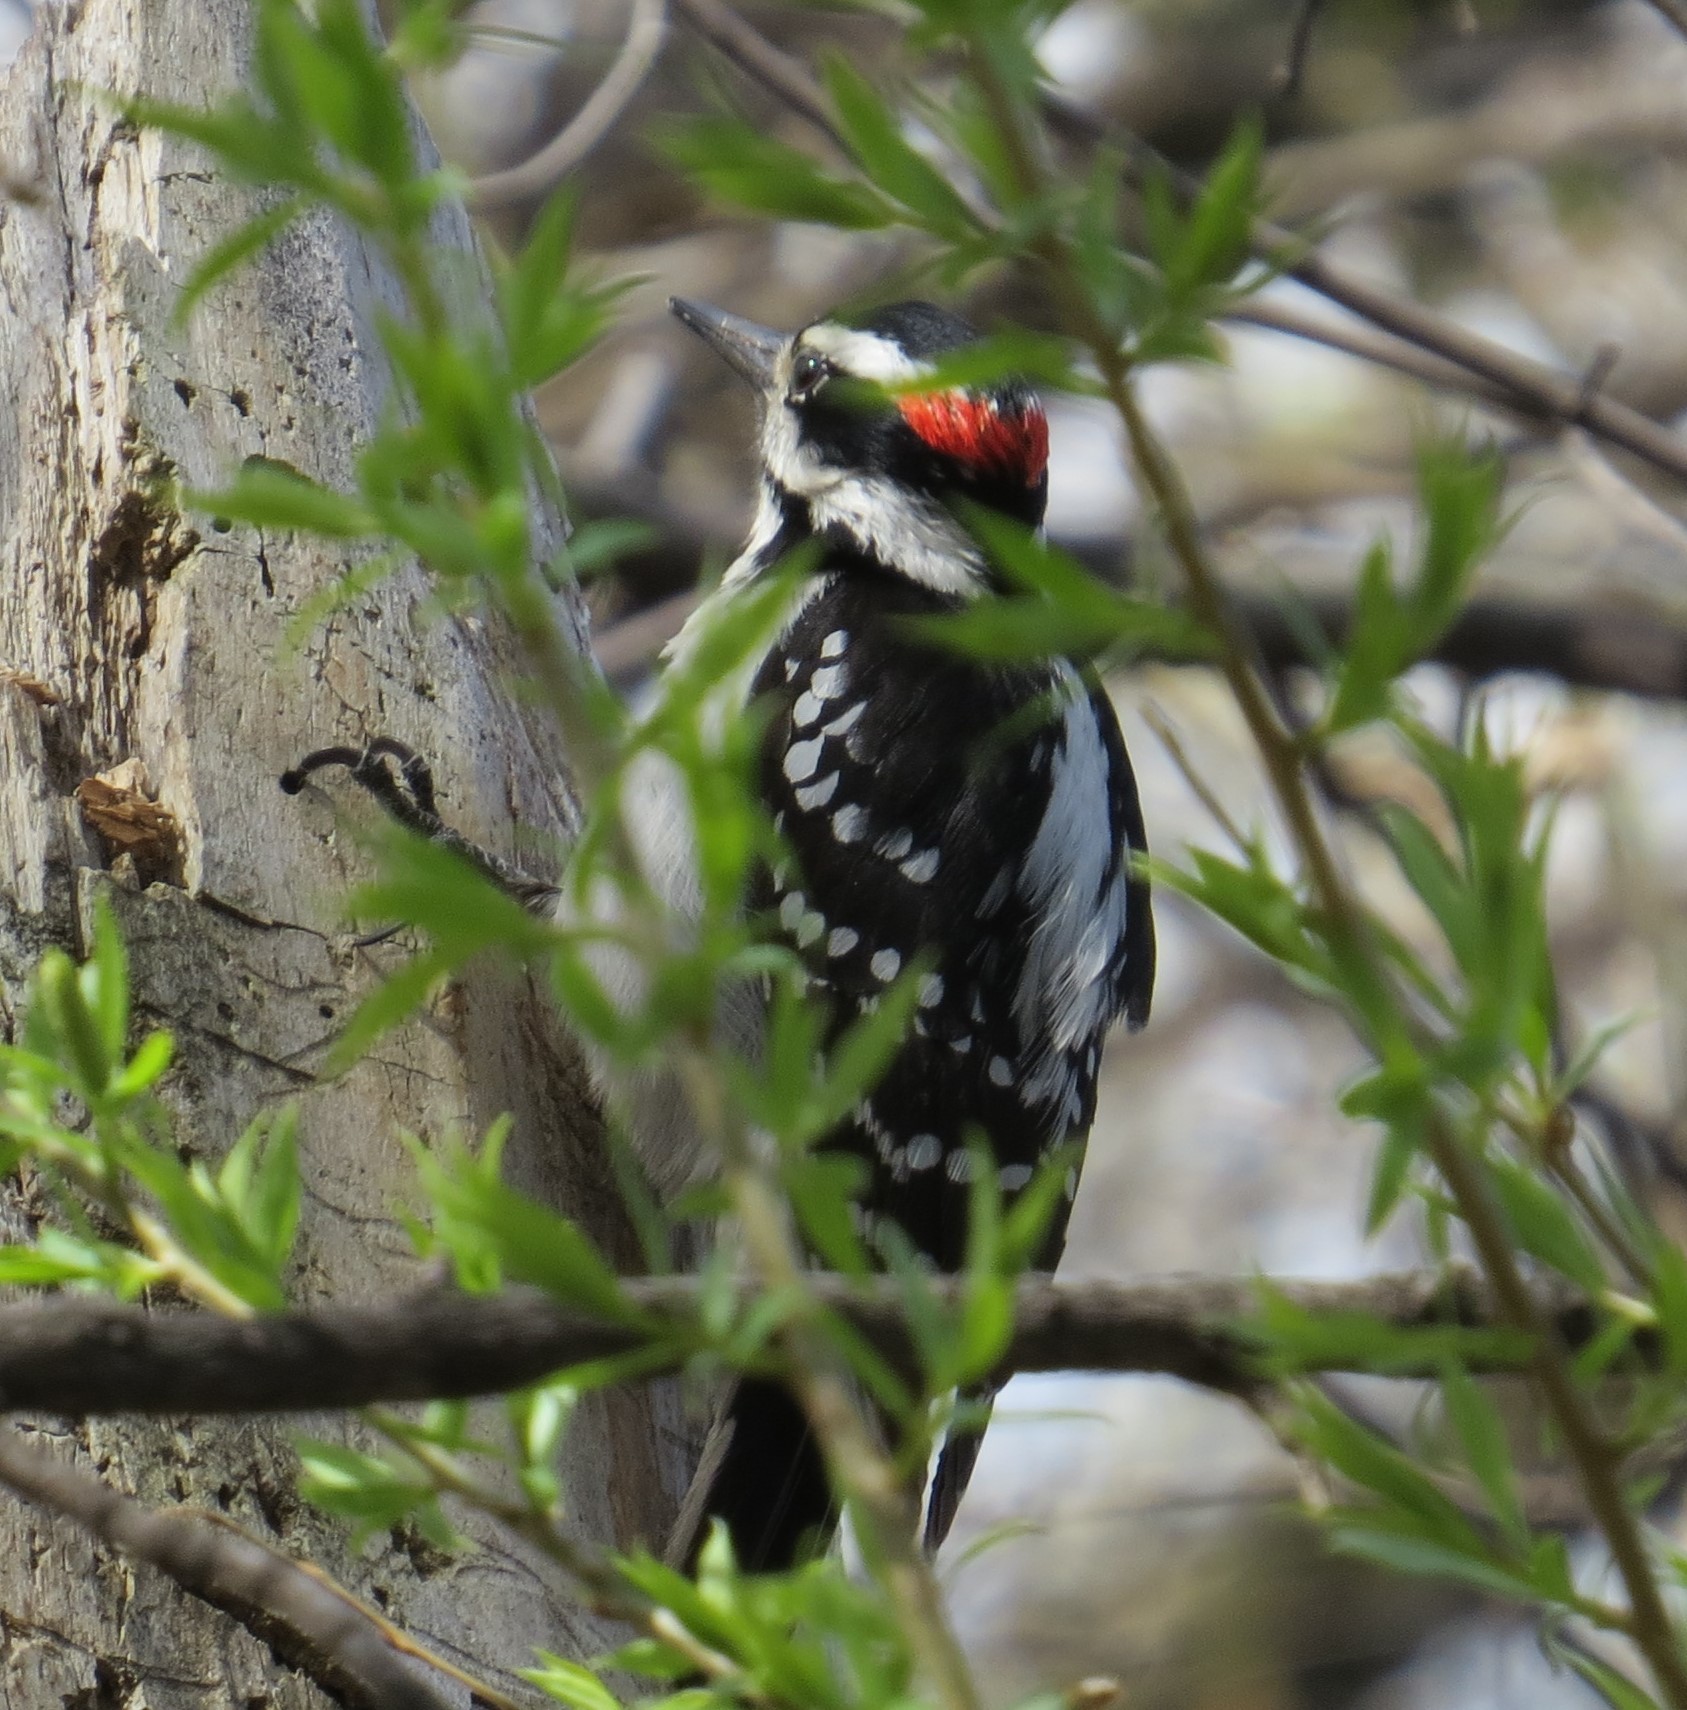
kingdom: Animalia
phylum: Chordata
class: Aves
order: Piciformes
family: Picidae
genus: Leuconotopicus
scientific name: Leuconotopicus villosus
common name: Hairy woodpecker
